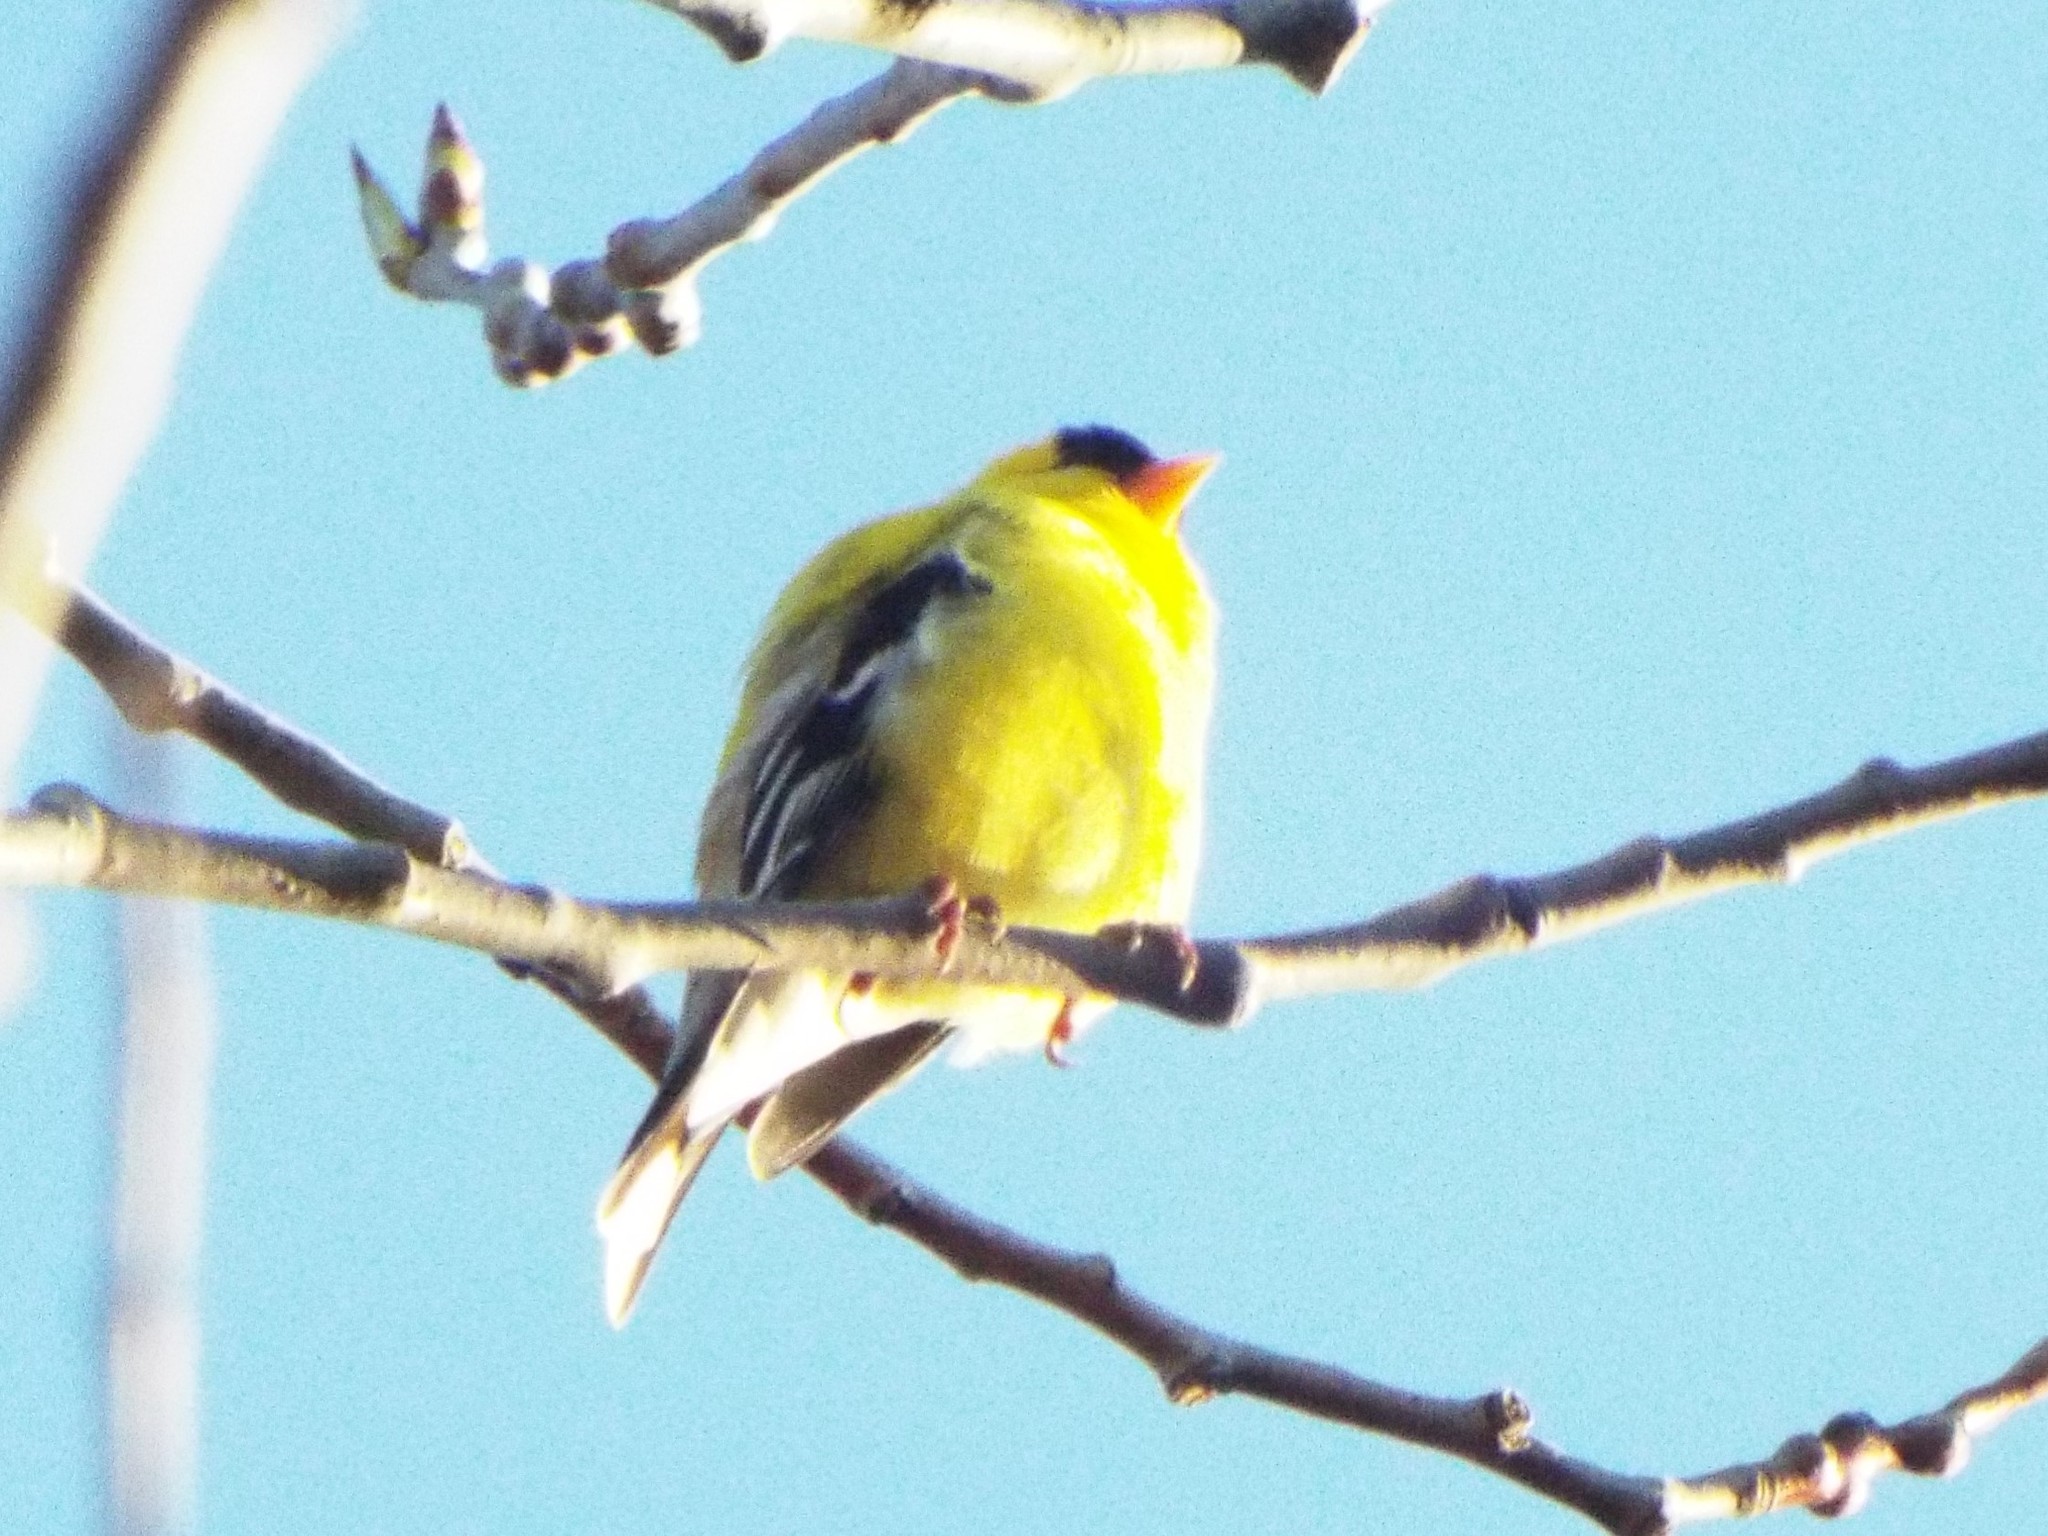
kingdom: Animalia
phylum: Chordata
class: Aves
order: Passeriformes
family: Fringillidae
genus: Spinus
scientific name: Spinus tristis
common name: American goldfinch
